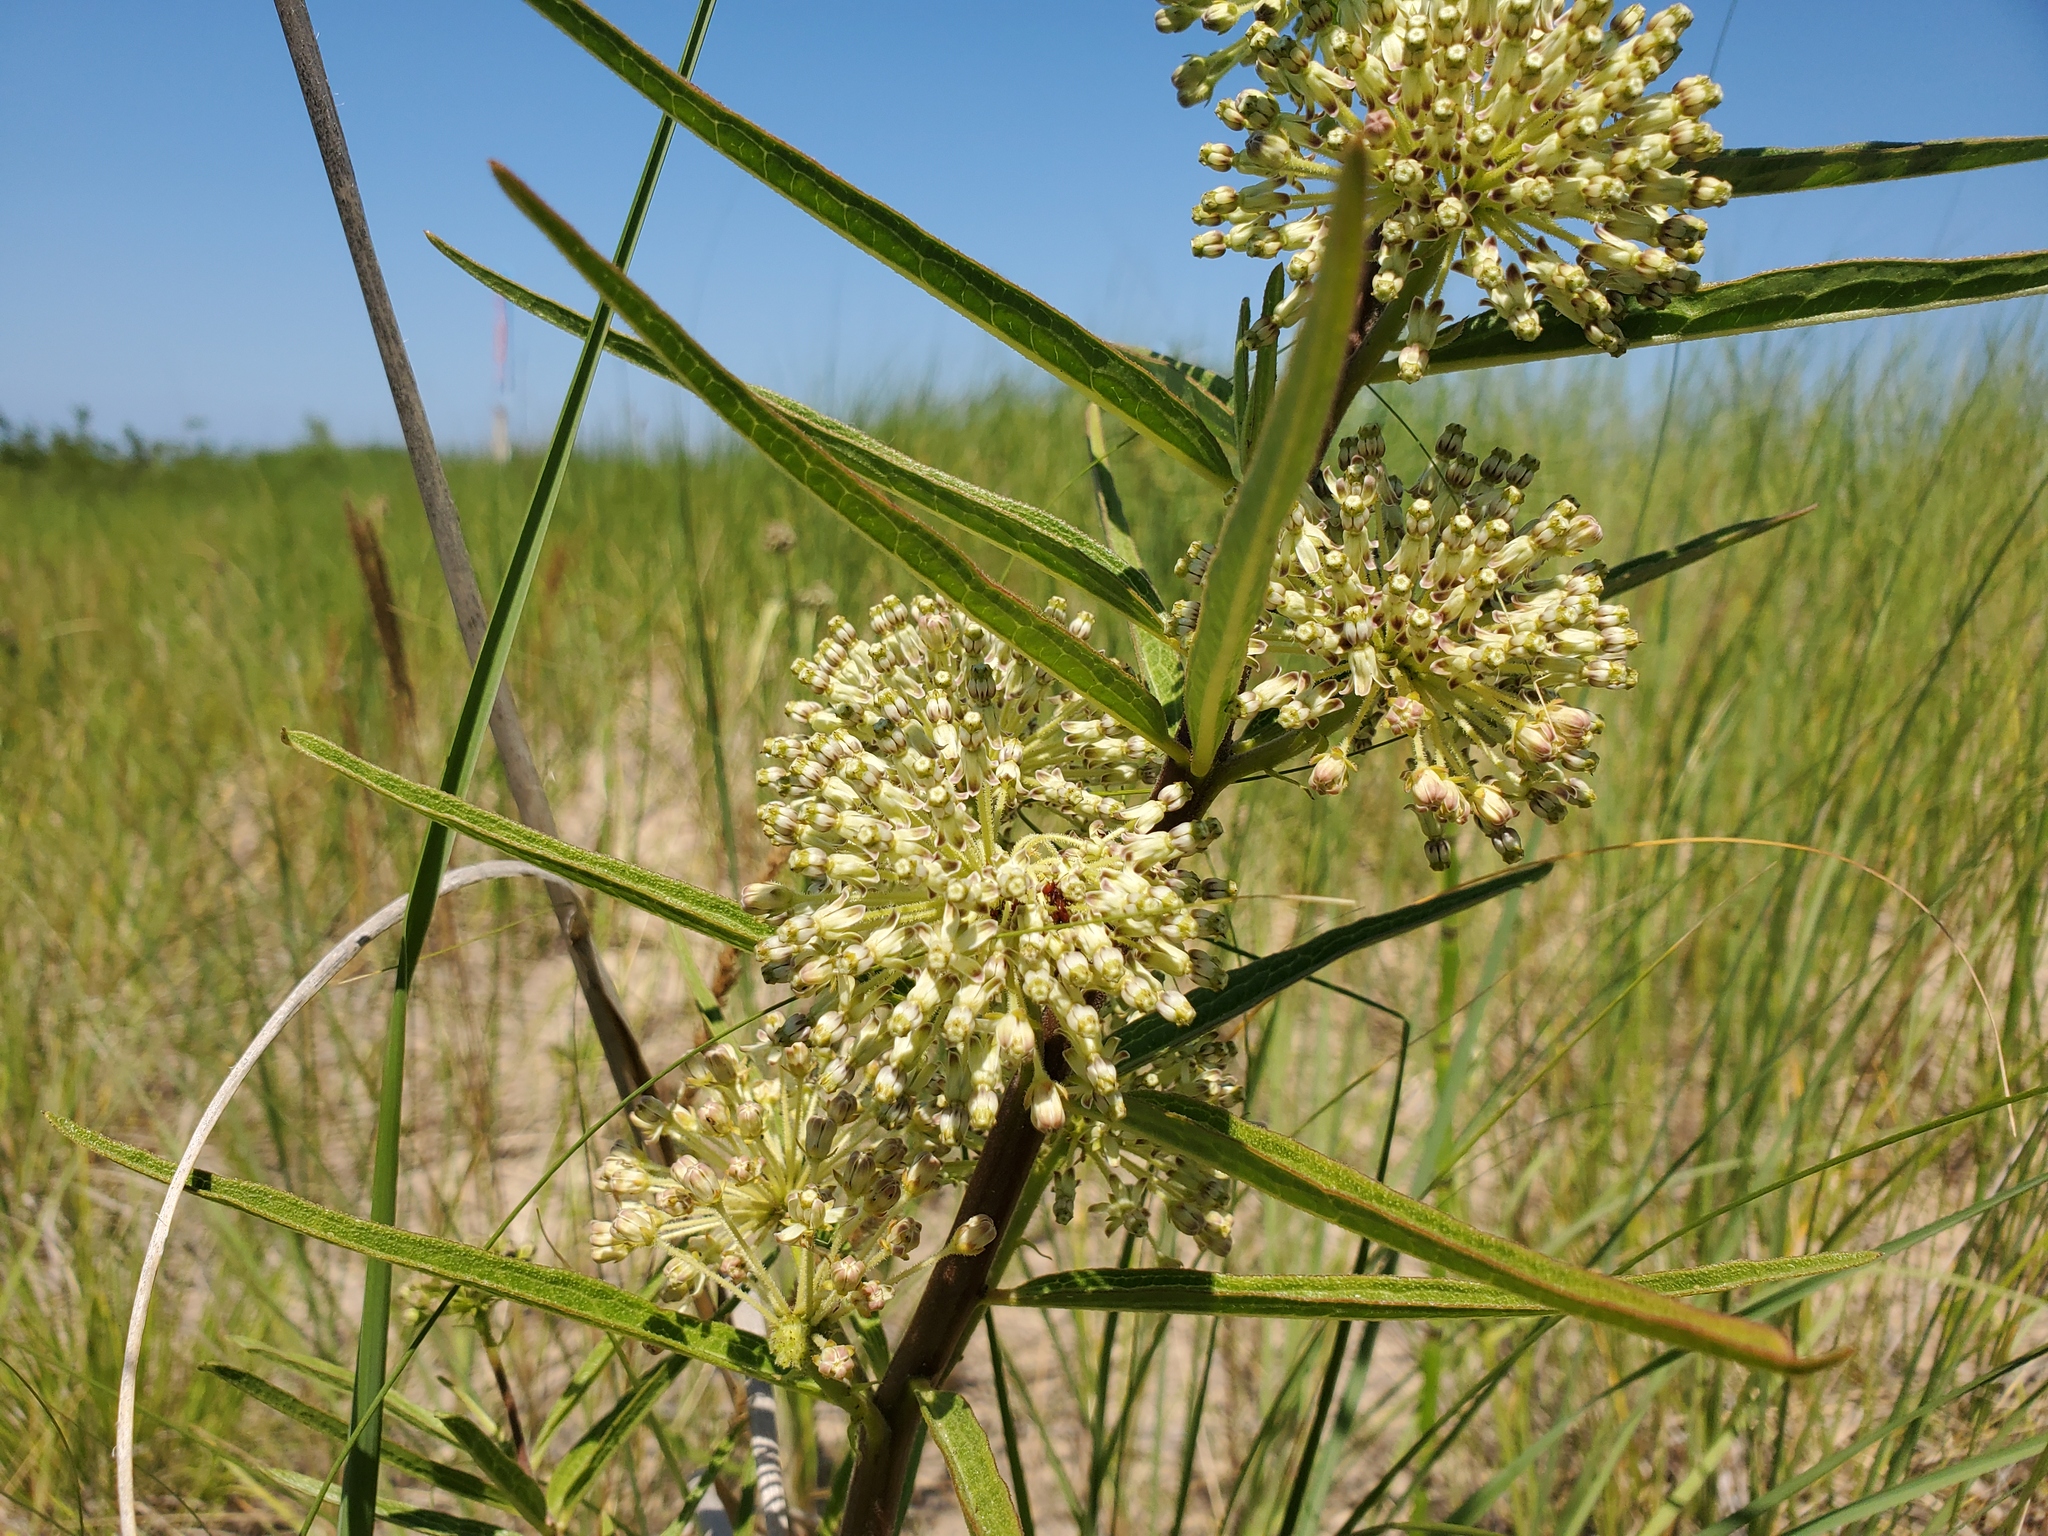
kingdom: Plantae
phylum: Tracheophyta
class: Magnoliopsida
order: Gentianales
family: Apocynaceae
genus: Asclepias
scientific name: Asclepias hirtella
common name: Prairie milkweed
